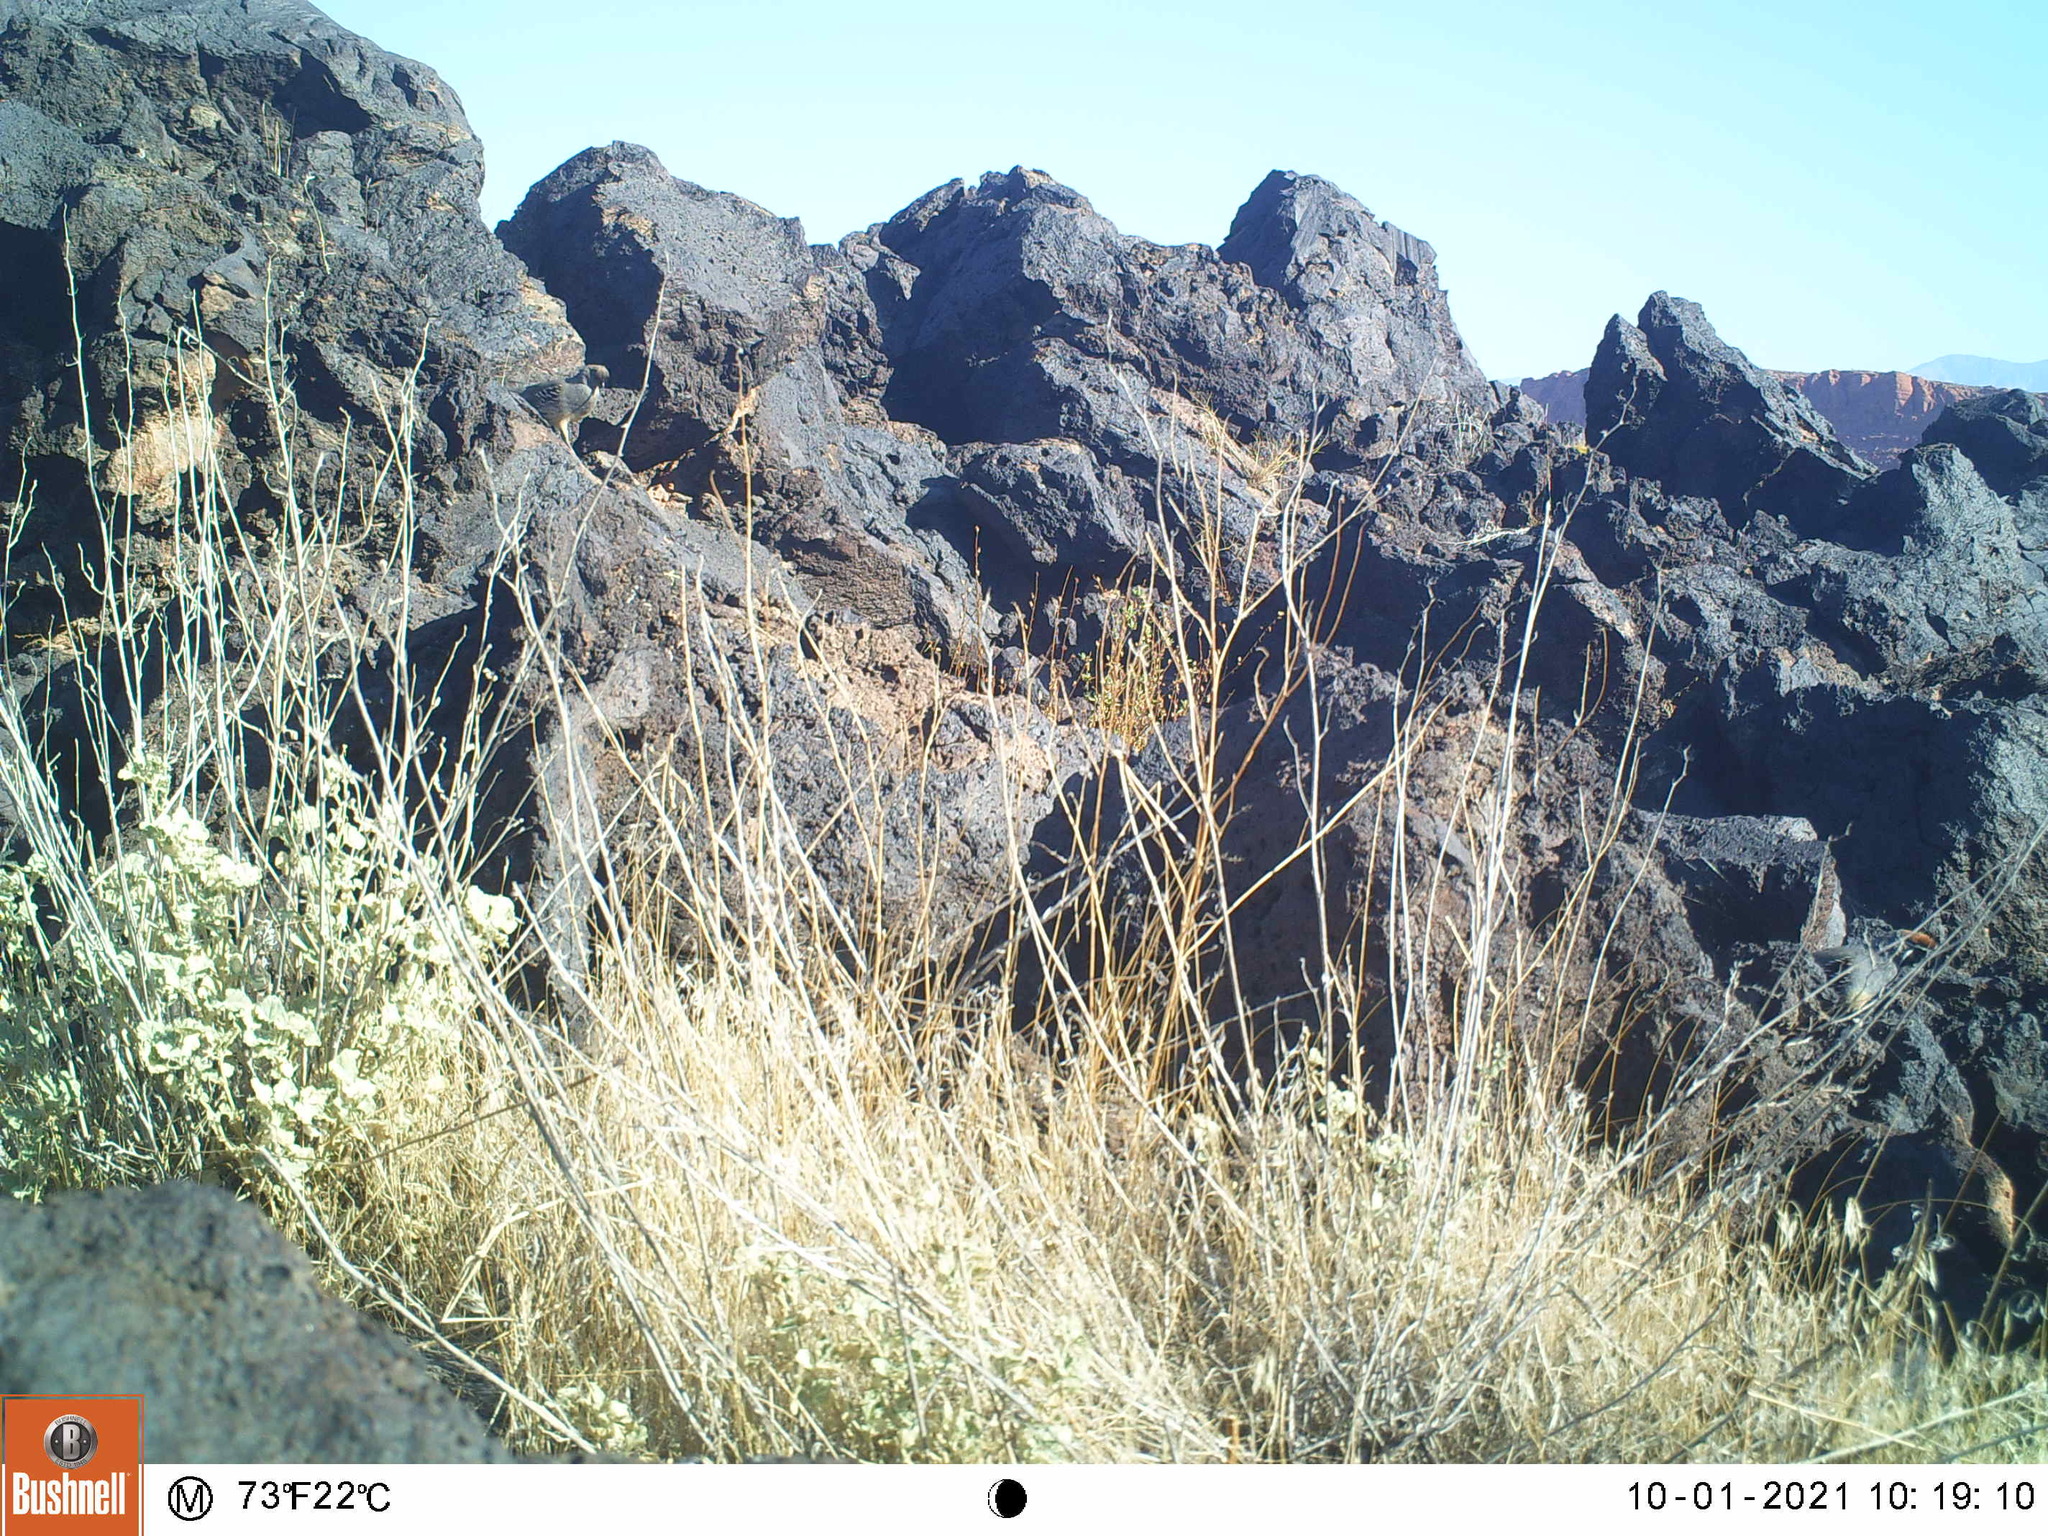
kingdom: Animalia
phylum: Chordata
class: Aves
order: Galliformes
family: Odontophoridae
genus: Callipepla
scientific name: Callipepla gambelii
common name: Gambel's quail
